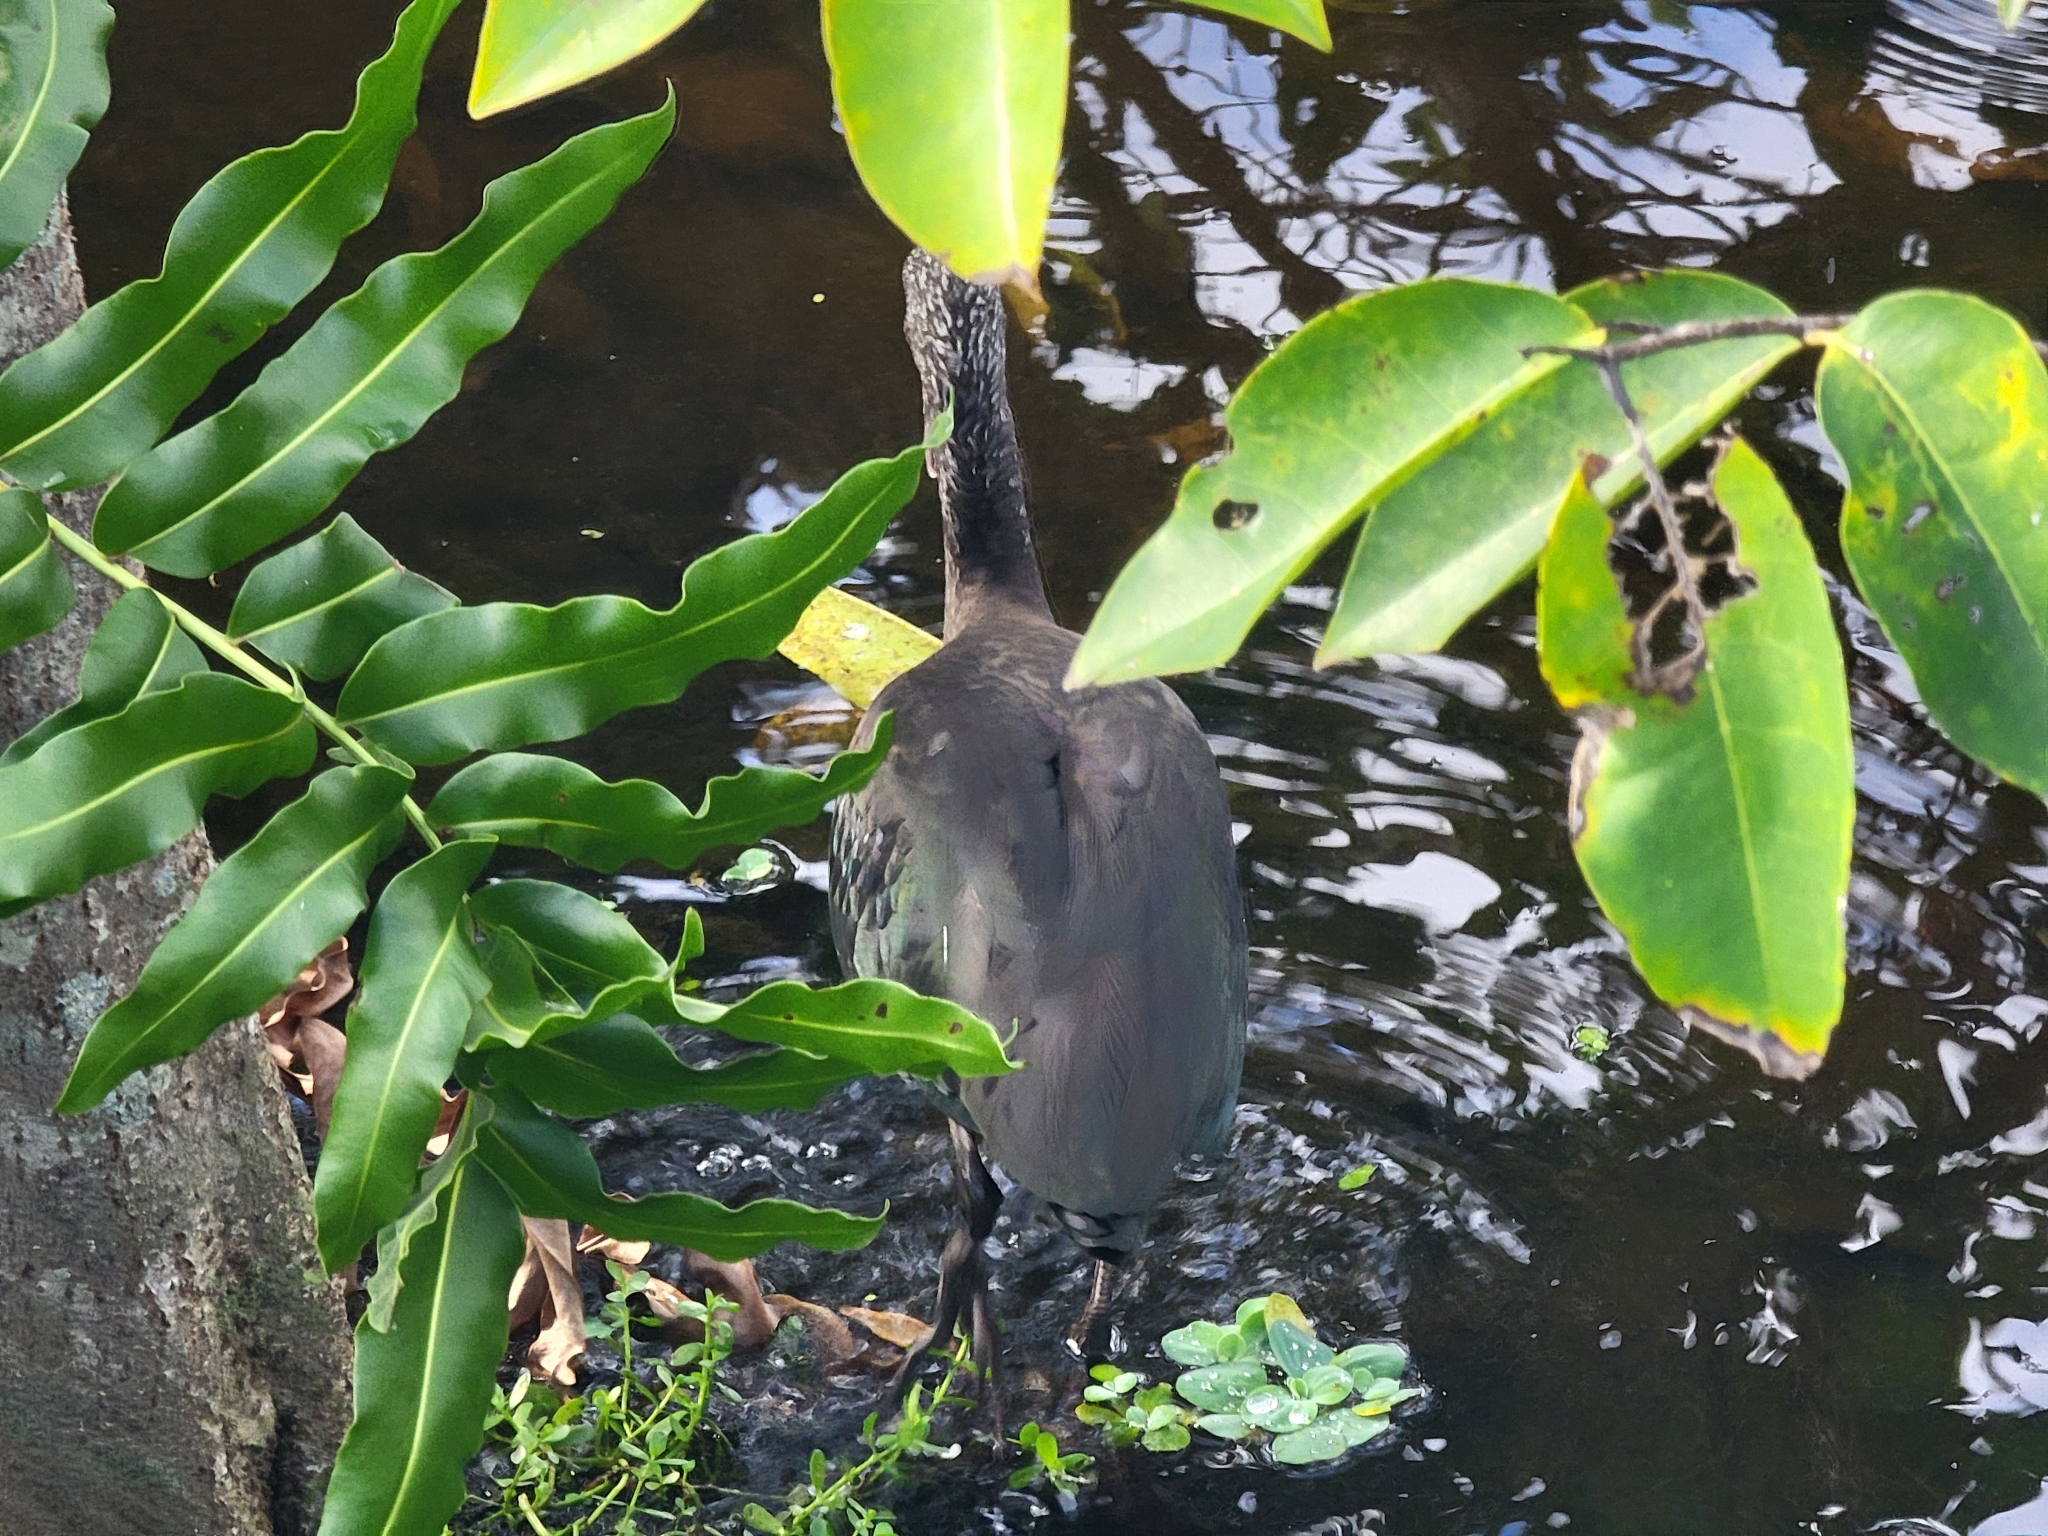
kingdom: Animalia
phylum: Chordata
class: Aves
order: Pelecaniformes
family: Threskiornithidae
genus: Plegadis
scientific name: Plegadis falcinellus
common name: Glossy ibis
